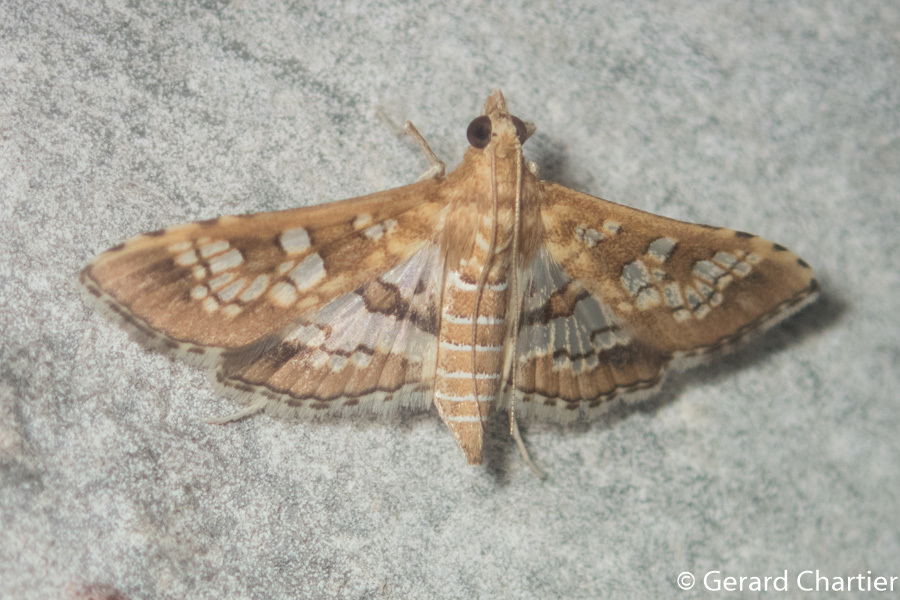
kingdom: Animalia
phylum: Arthropoda
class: Insecta
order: Lepidoptera
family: Crambidae
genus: Sameodes
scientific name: Sameodes cancellalis
